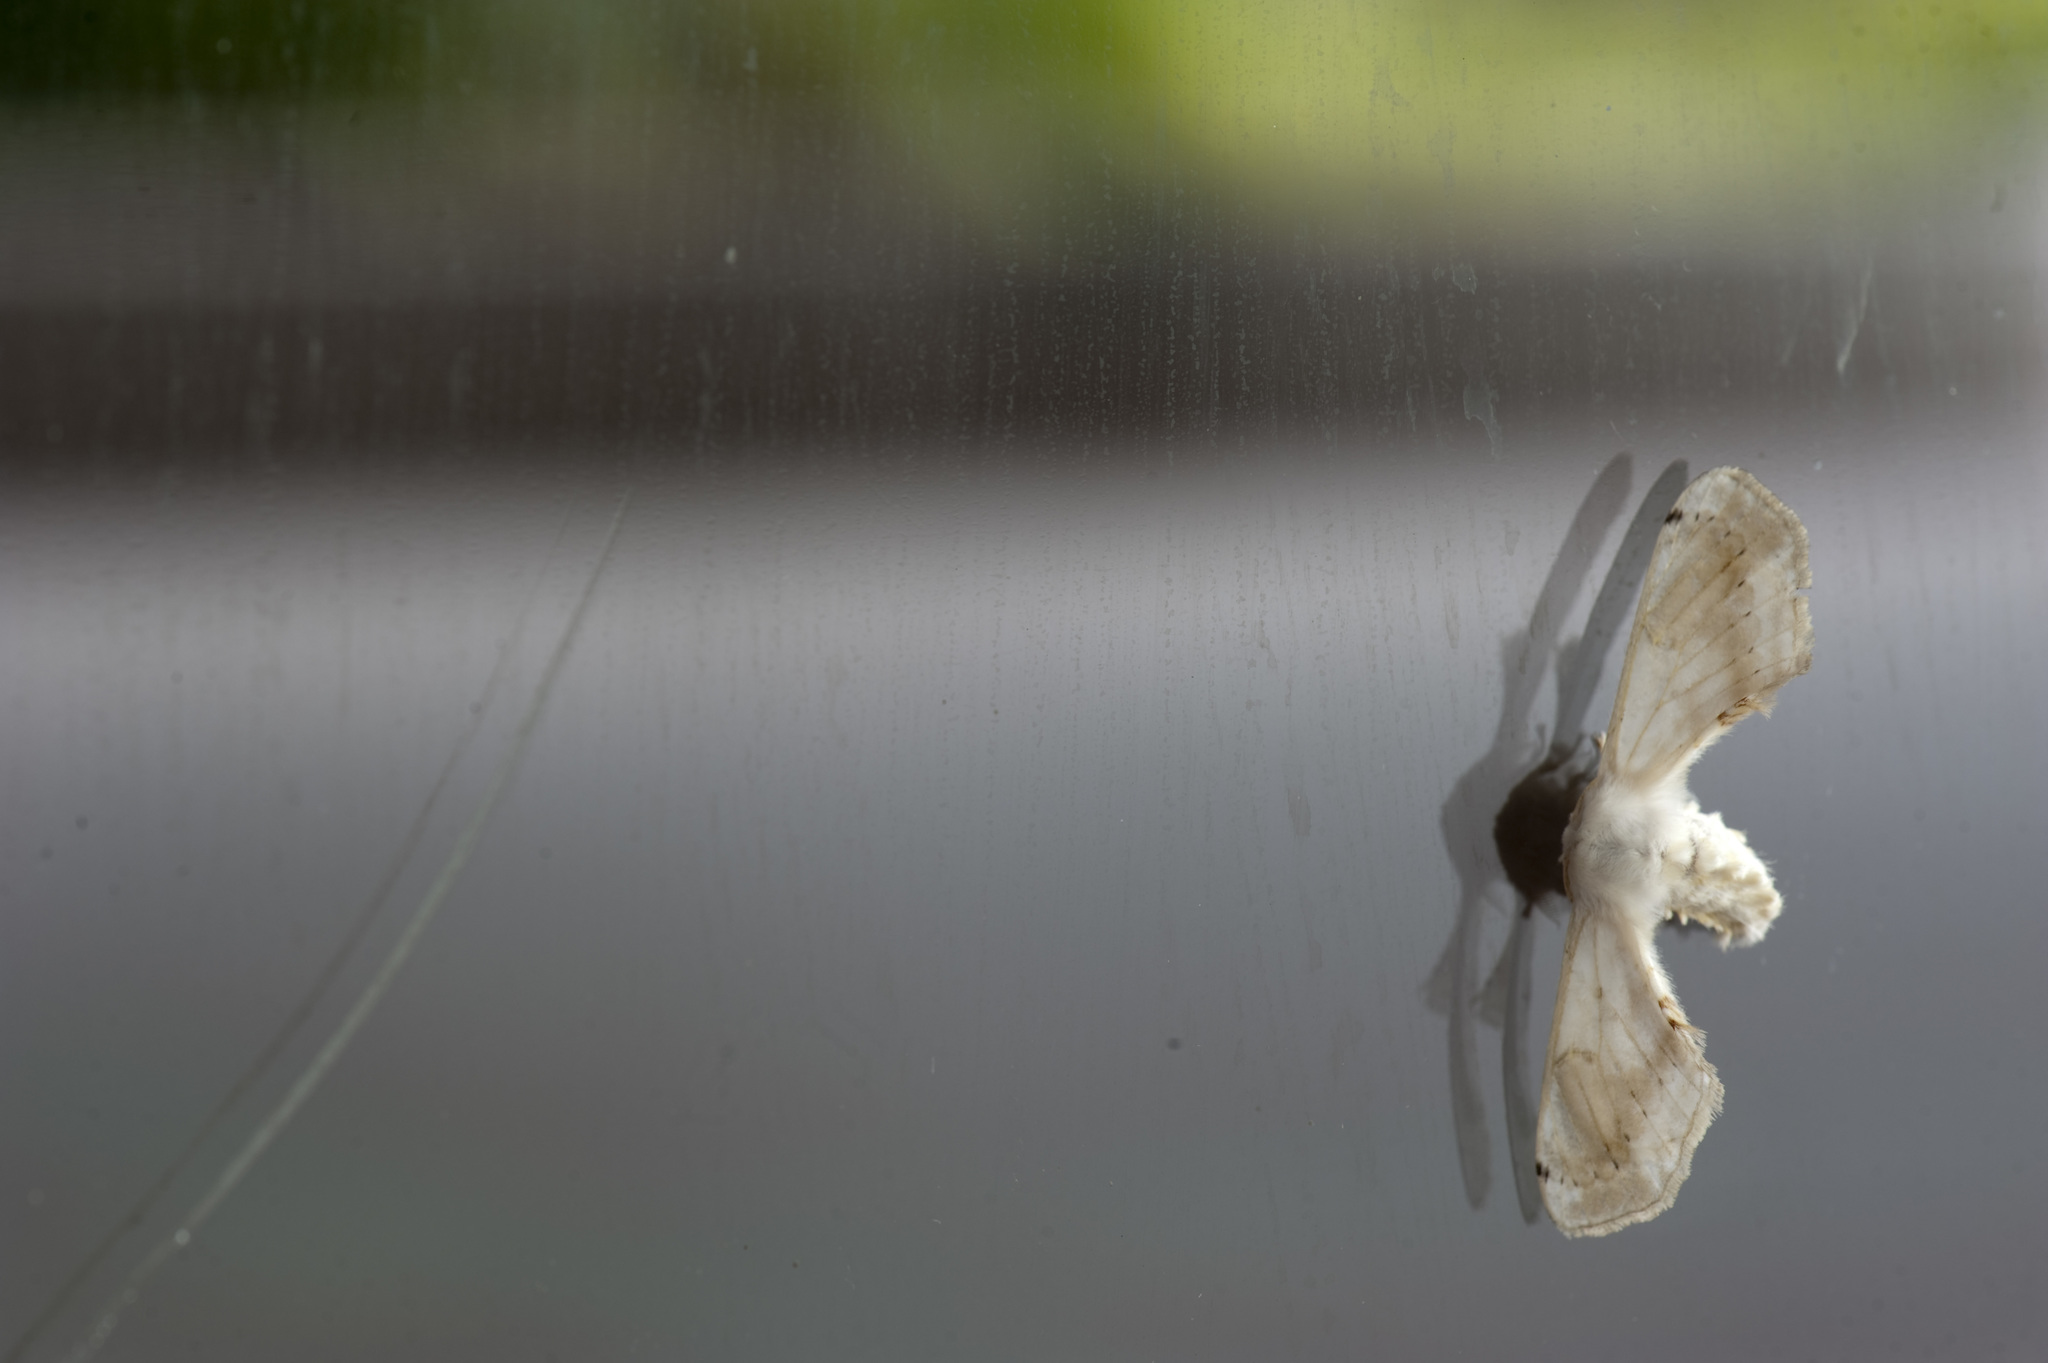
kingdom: Animalia
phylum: Arthropoda
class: Insecta
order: Lepidoptera
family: Bombycidae
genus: Ernolatia
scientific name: Ernolatia moorei
